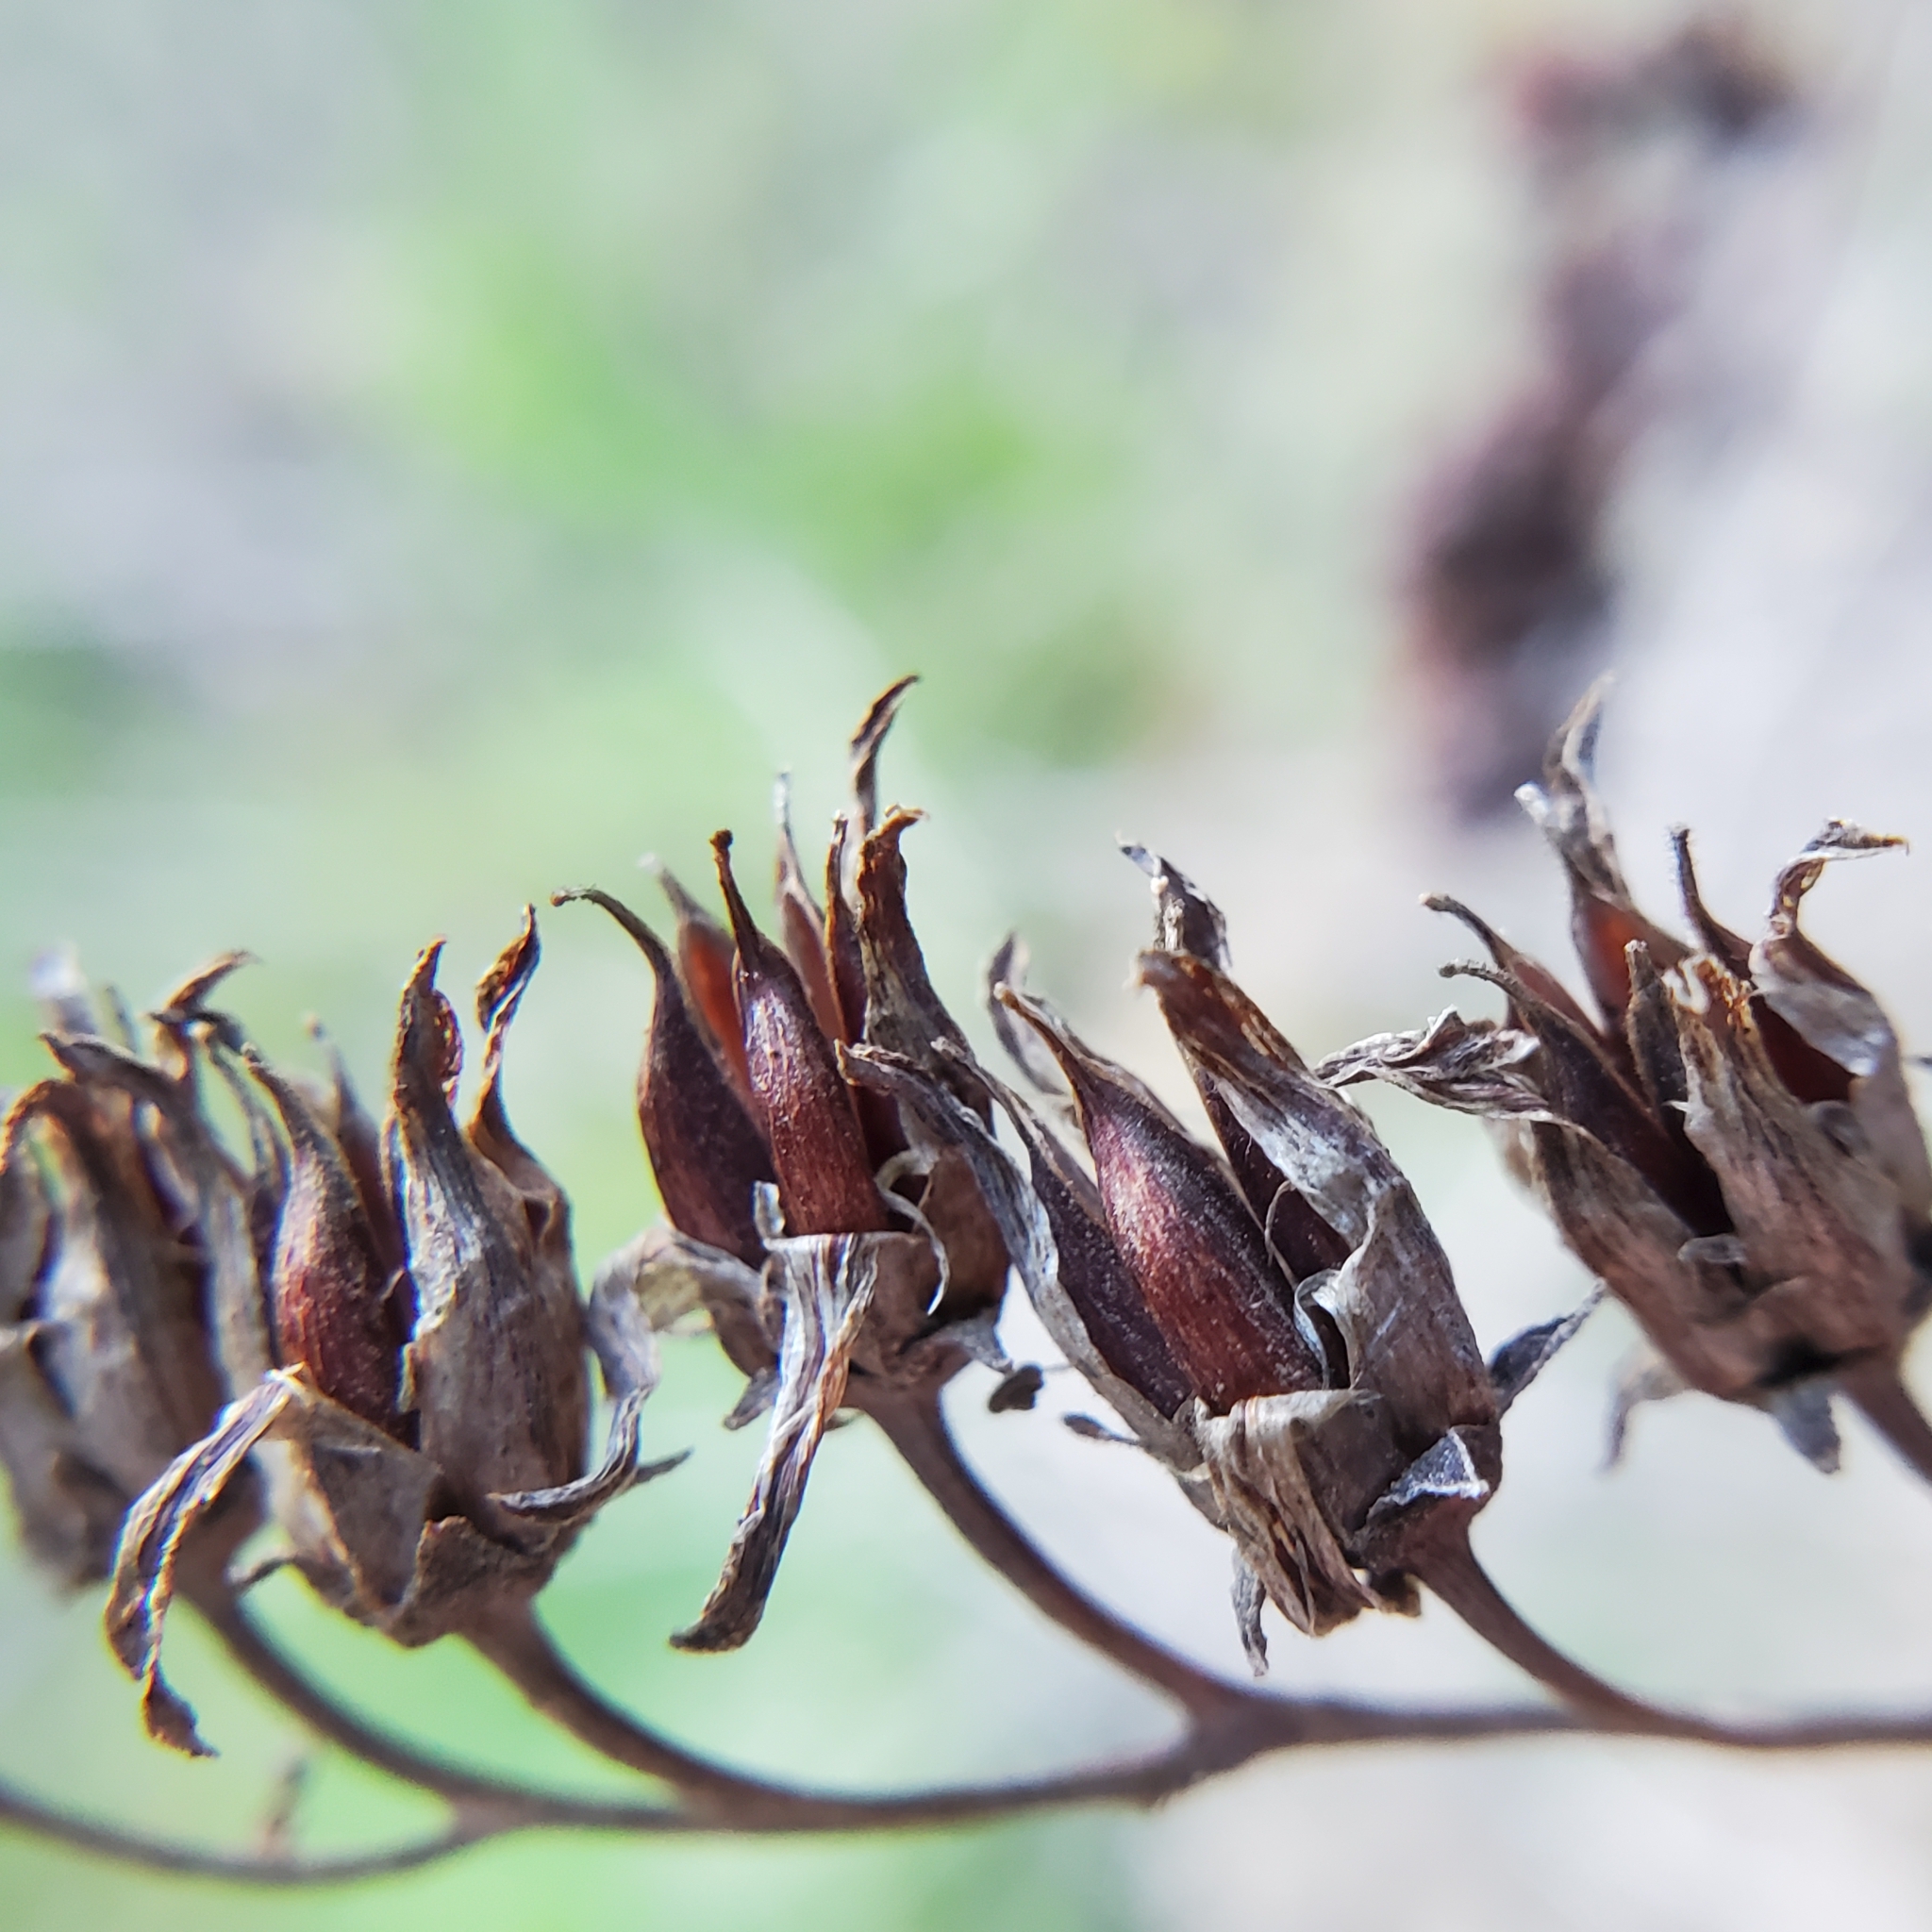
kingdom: Plantae
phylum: Tracheophyta
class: Magnoliopsida
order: Saxifragales
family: Crassulaceae
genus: Dudleya
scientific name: Dudleya lanceolata
